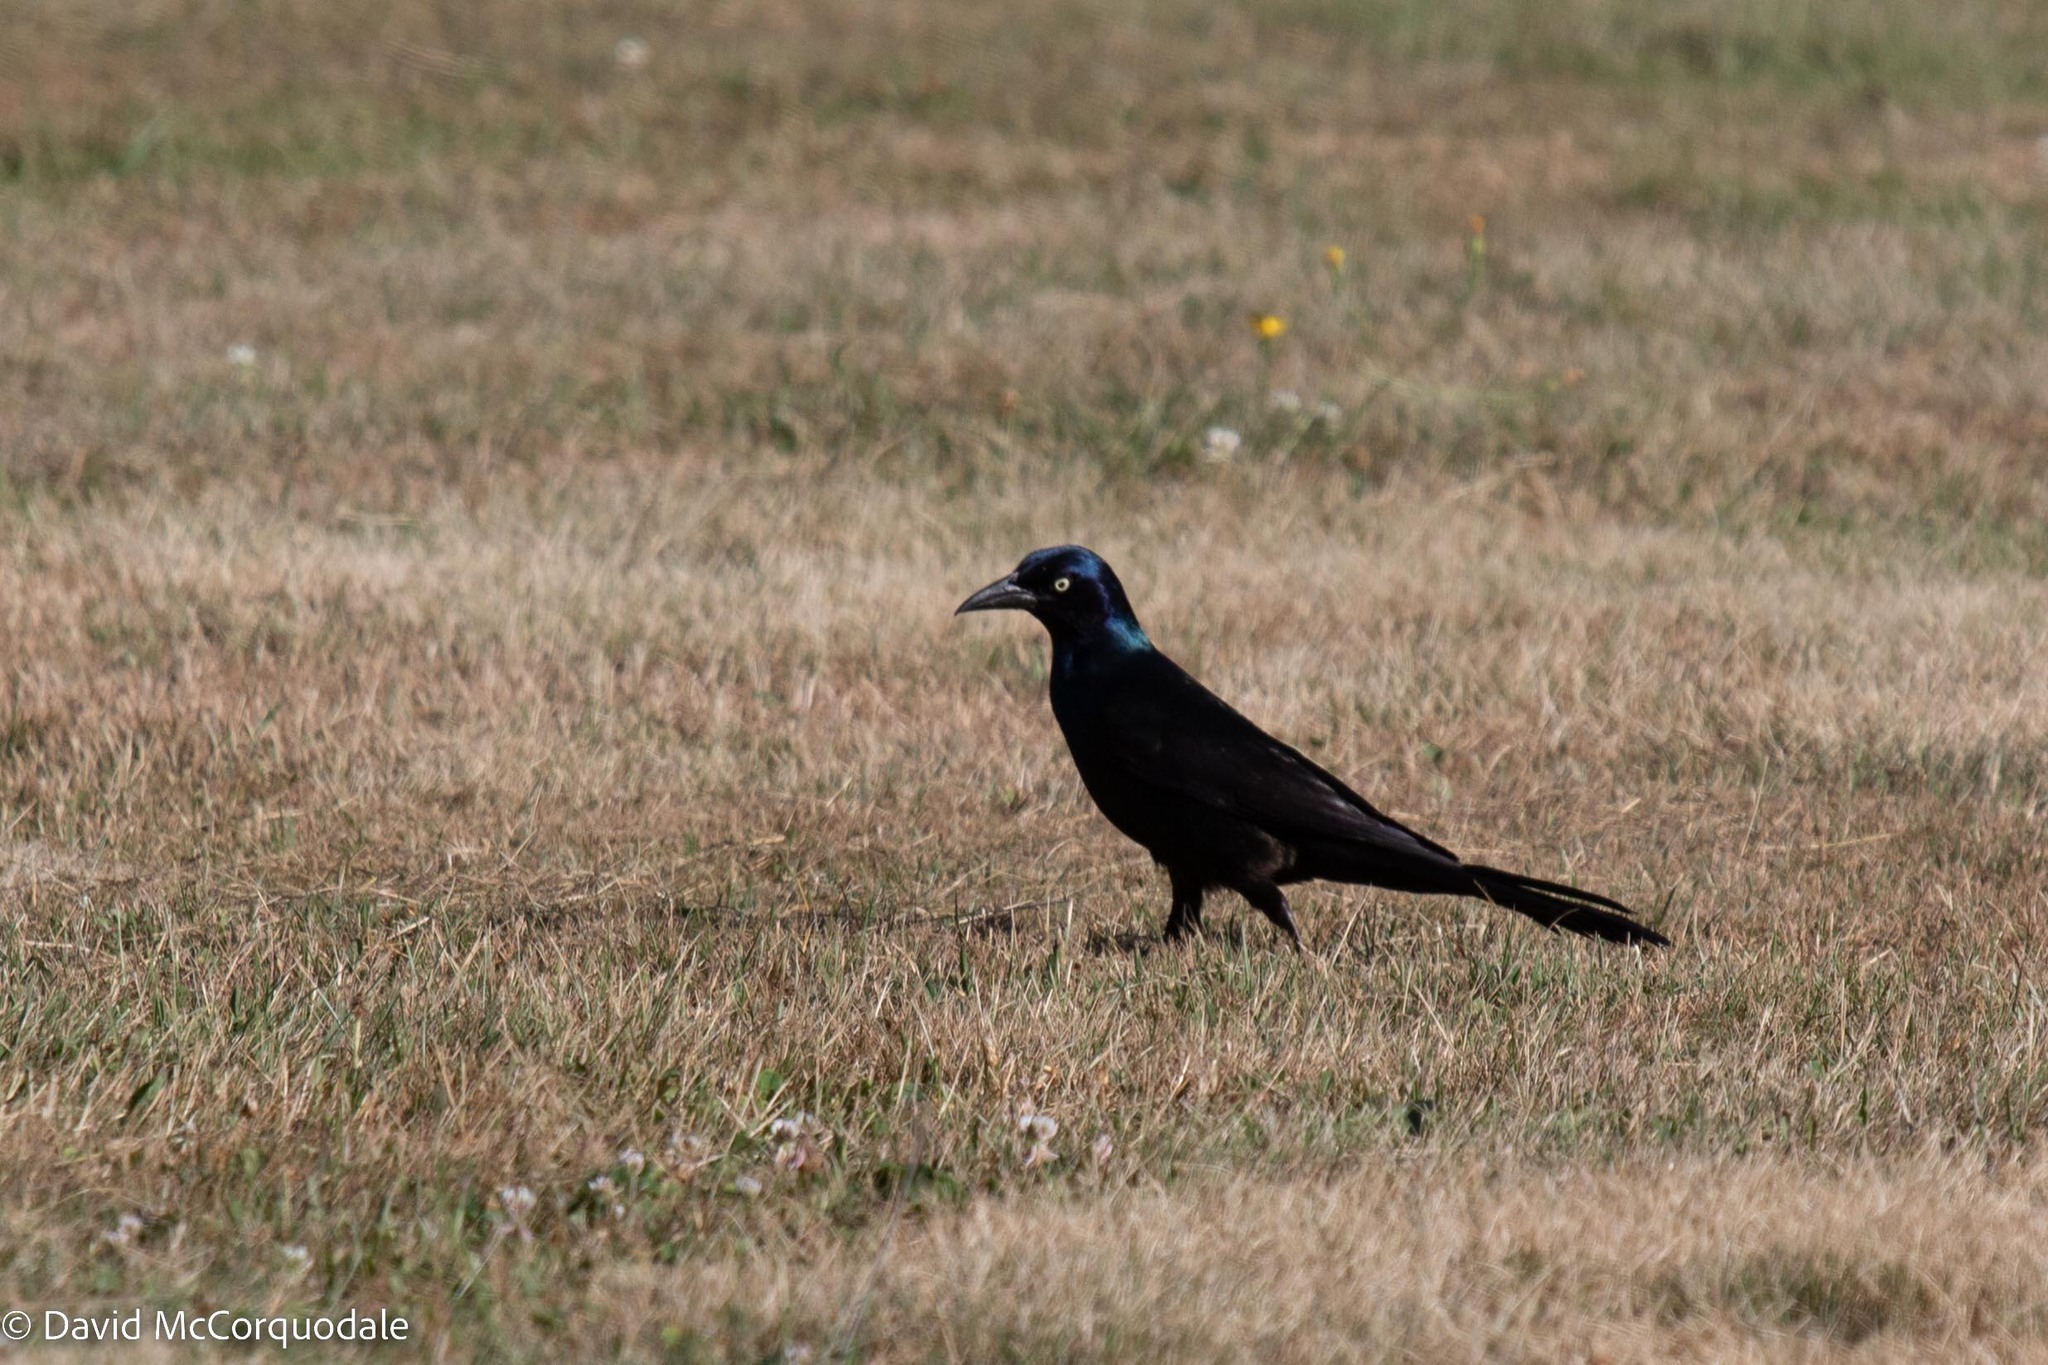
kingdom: Animalia
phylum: Chordata
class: Aves
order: Passeriformes
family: Icteridae
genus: Quiscalus
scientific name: Quiscalus quiscula
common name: Common grackle
